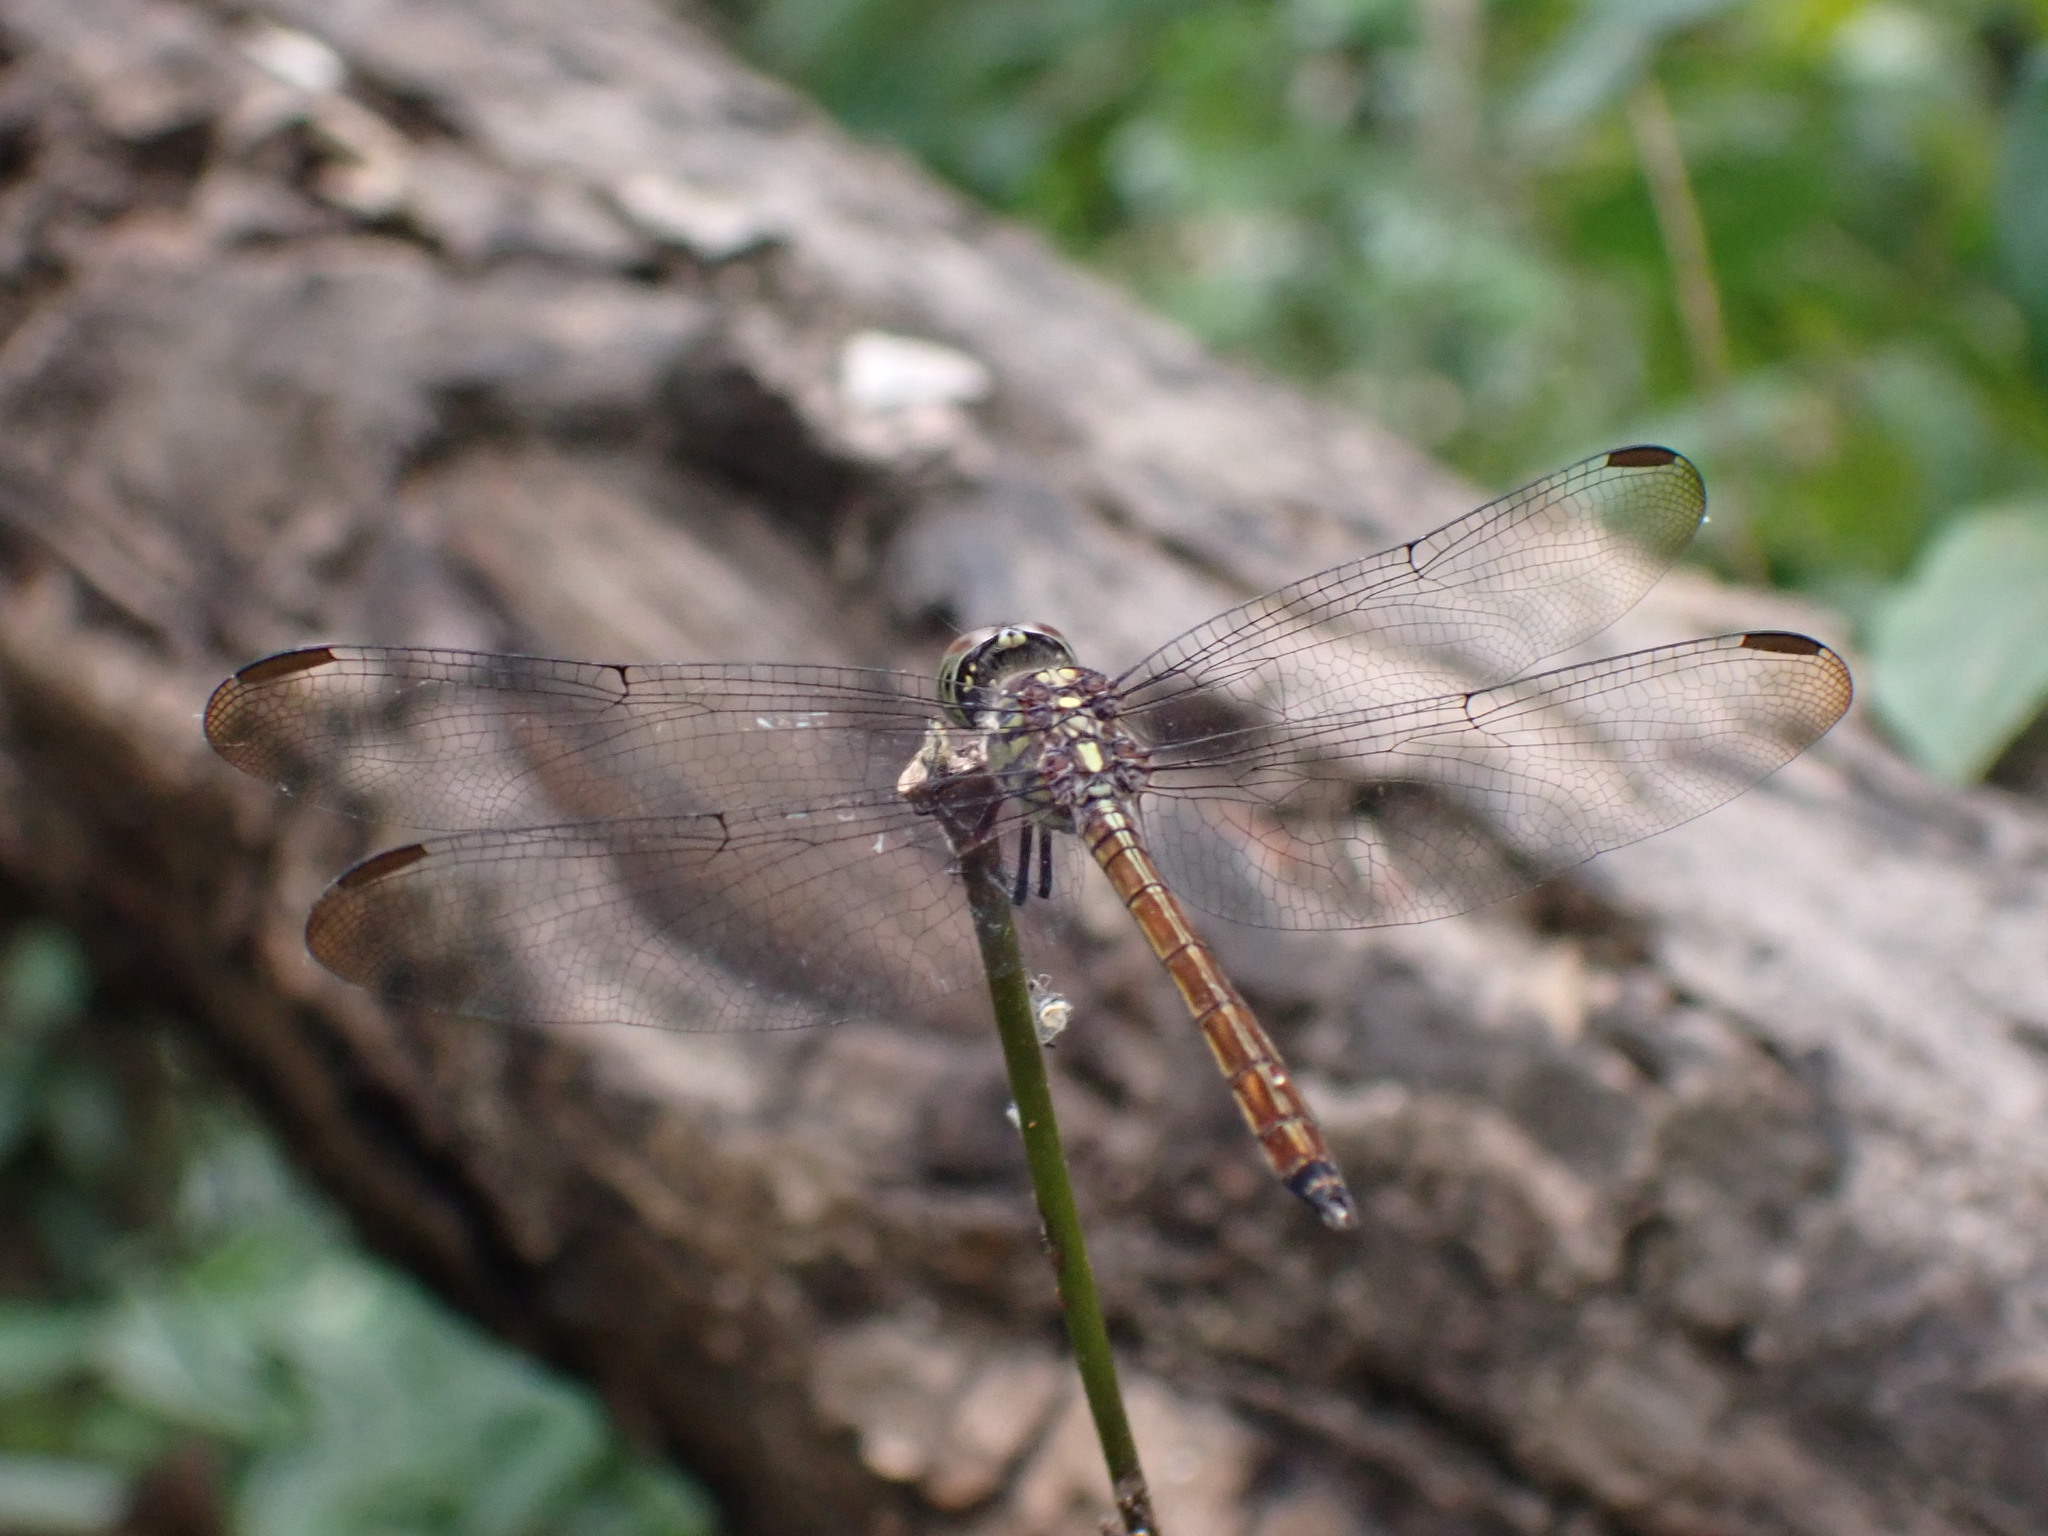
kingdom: Animalia
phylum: Arthropoda
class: Insecta
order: Odonata
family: Libellulidae
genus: Lathrecista
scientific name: Lathrecista asiatica
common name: Scarlet grenadier
